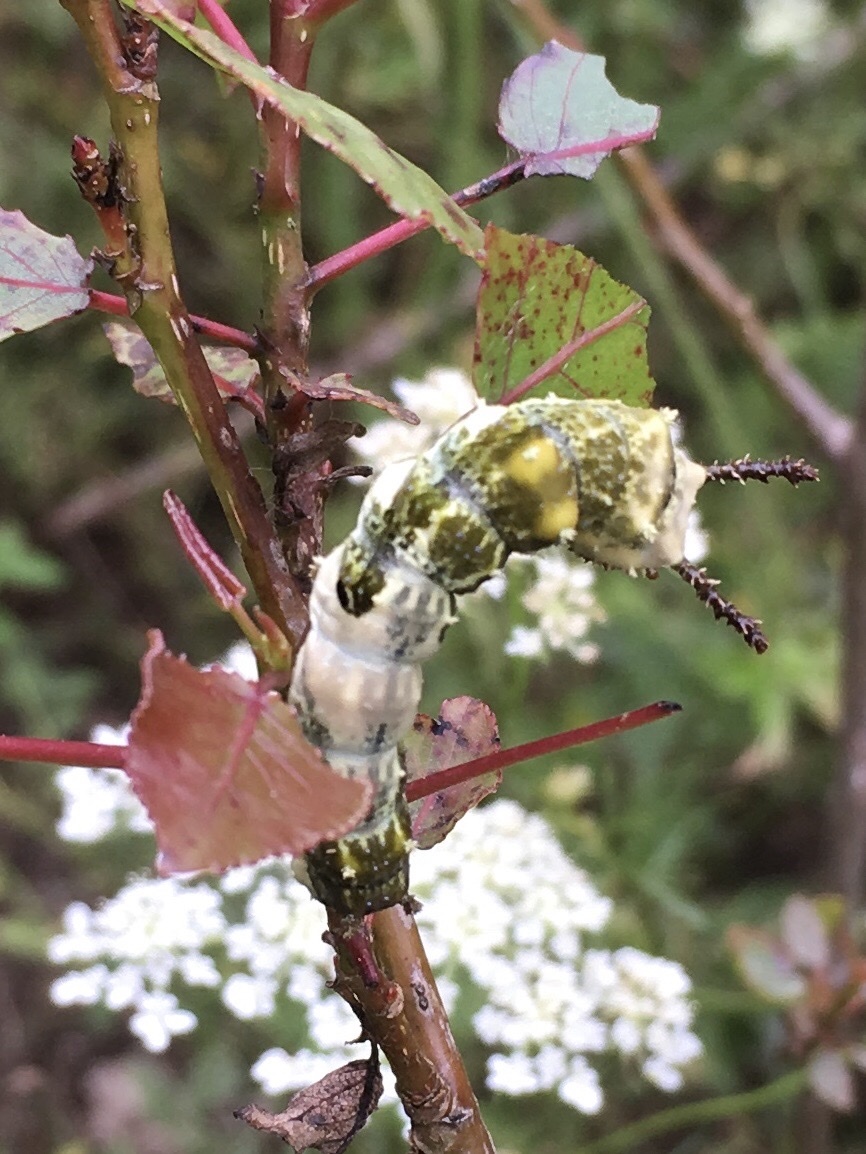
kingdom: Animalia
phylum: Arthropoda
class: Insecta
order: Lepidoptera
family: Nymphalidae
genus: Limenitis
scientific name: Limenitis archippus
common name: Viceroy
